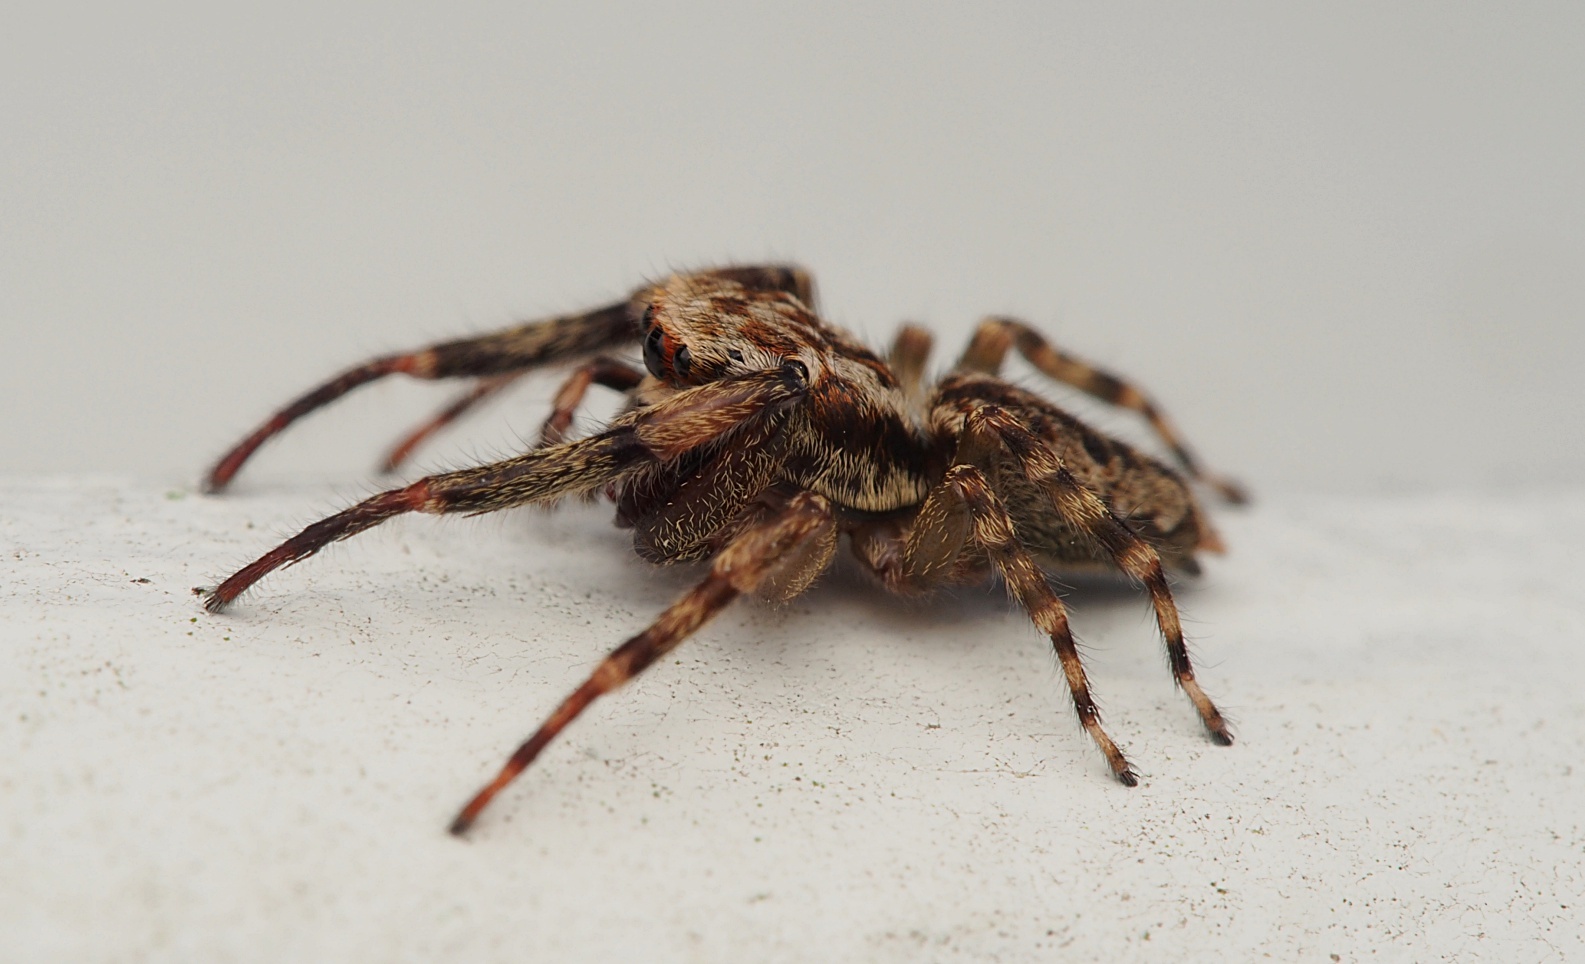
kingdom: Animalia
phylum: Arthropoda
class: Arachnida
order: Araneae
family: Salticidae
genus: Trite
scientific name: Trite auricoma
